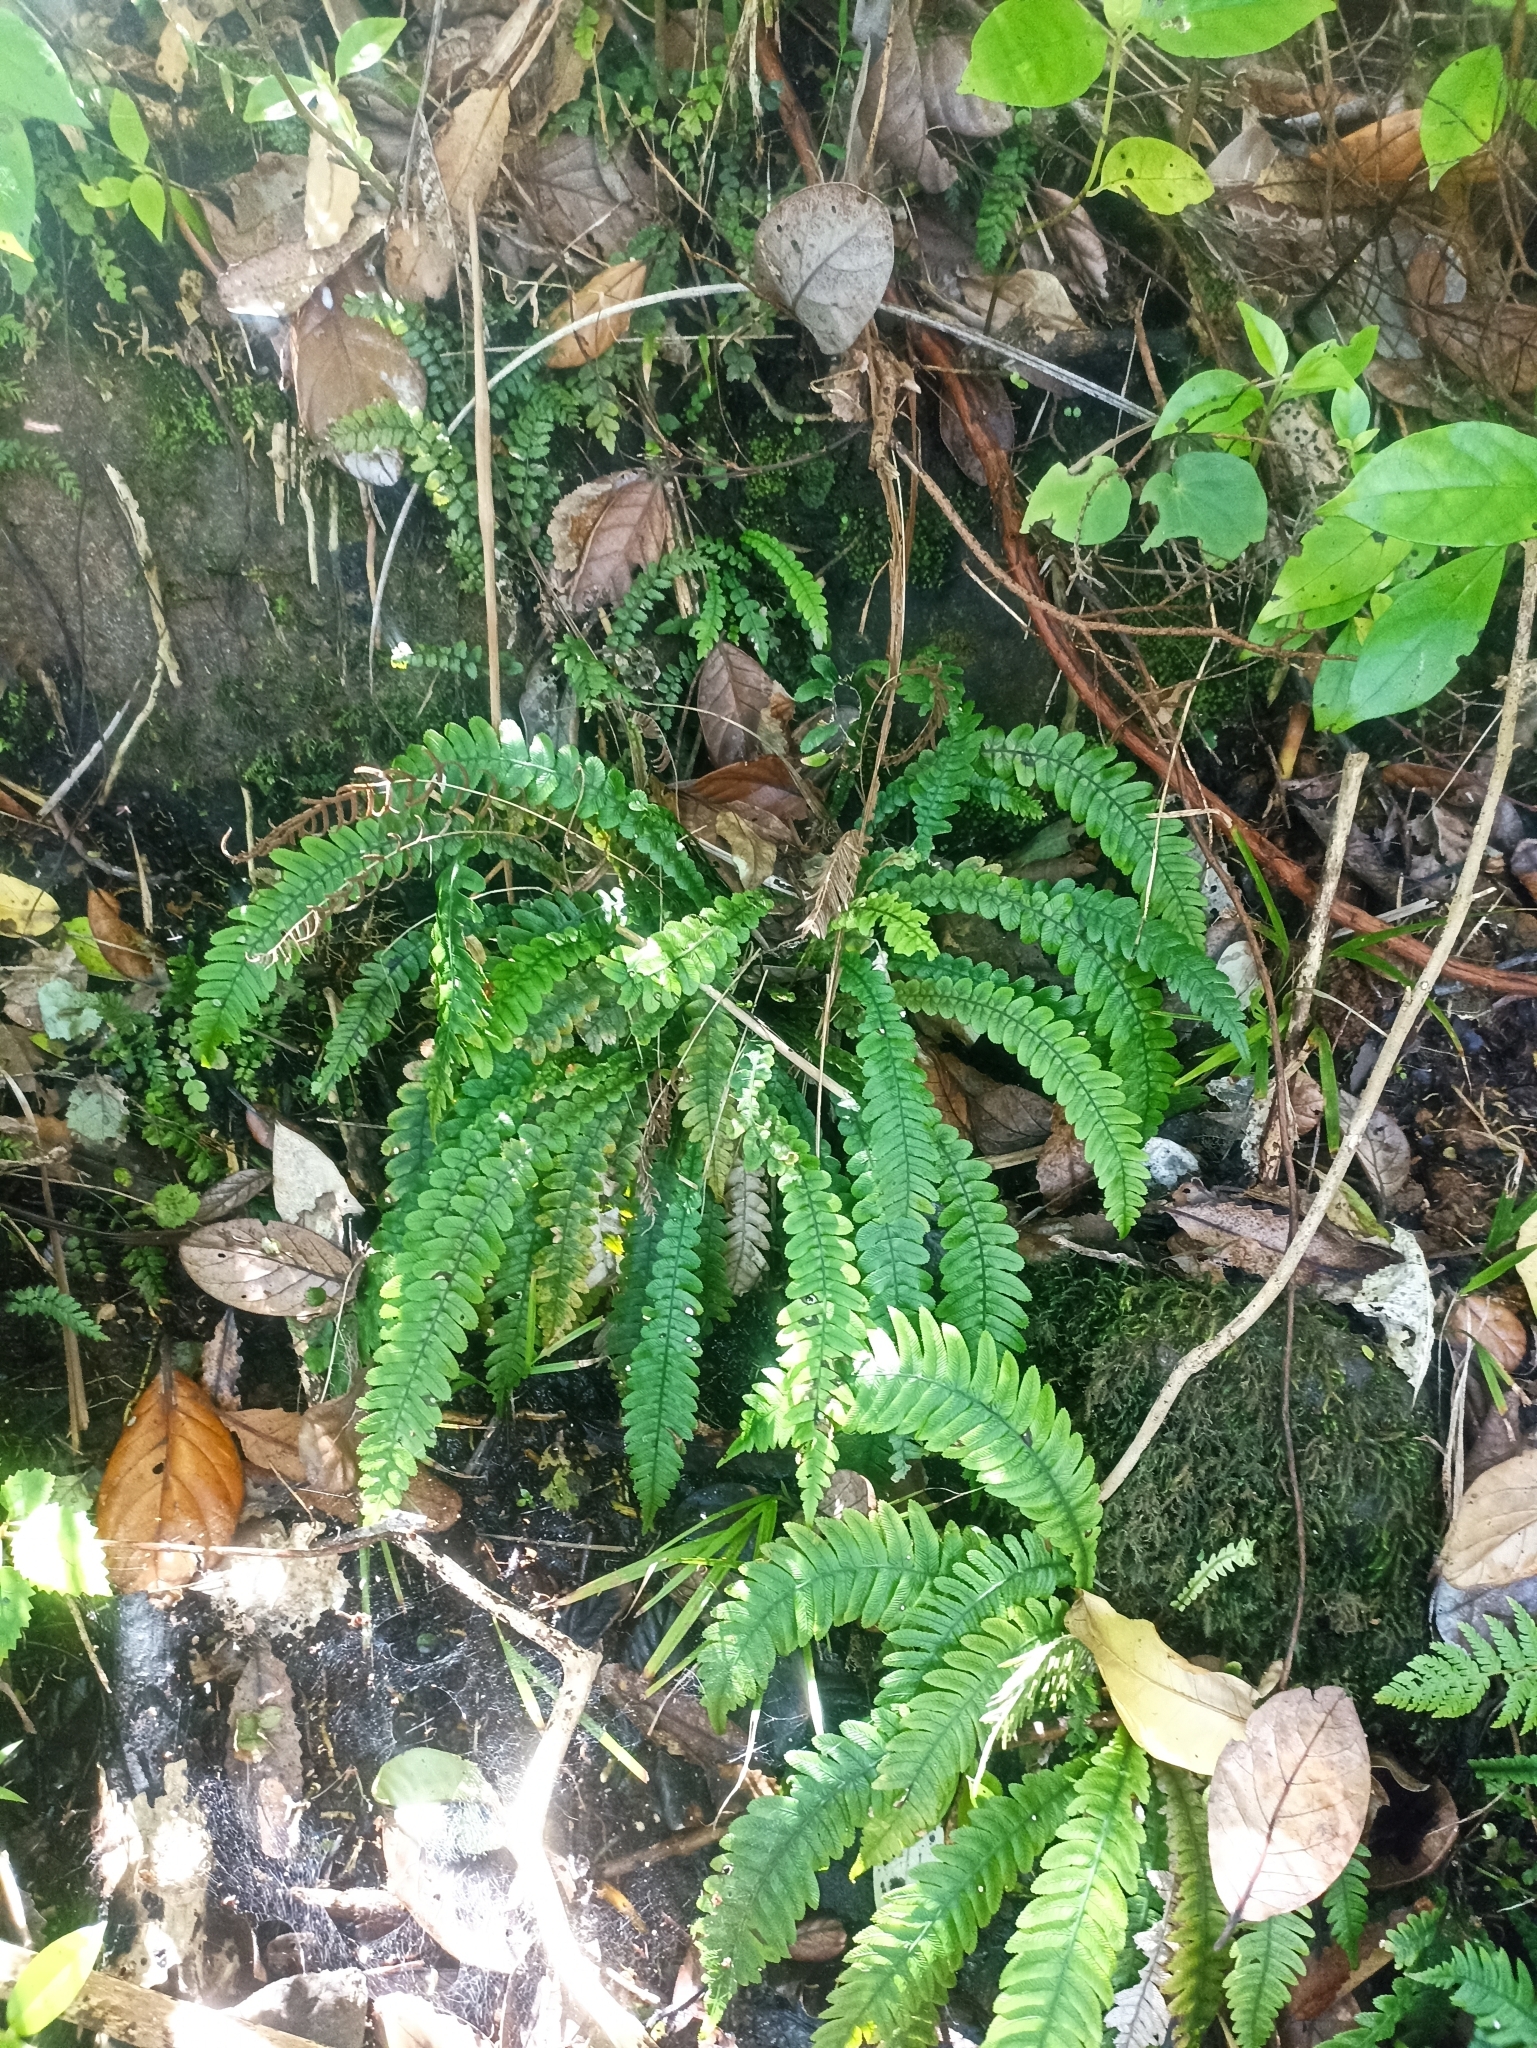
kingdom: Plantae
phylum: Tracheophyta
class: Polypodiopsida
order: Polypodiales
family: Blechnaceae
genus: Austroblechnum
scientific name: Austroblechnum lanceolatum
